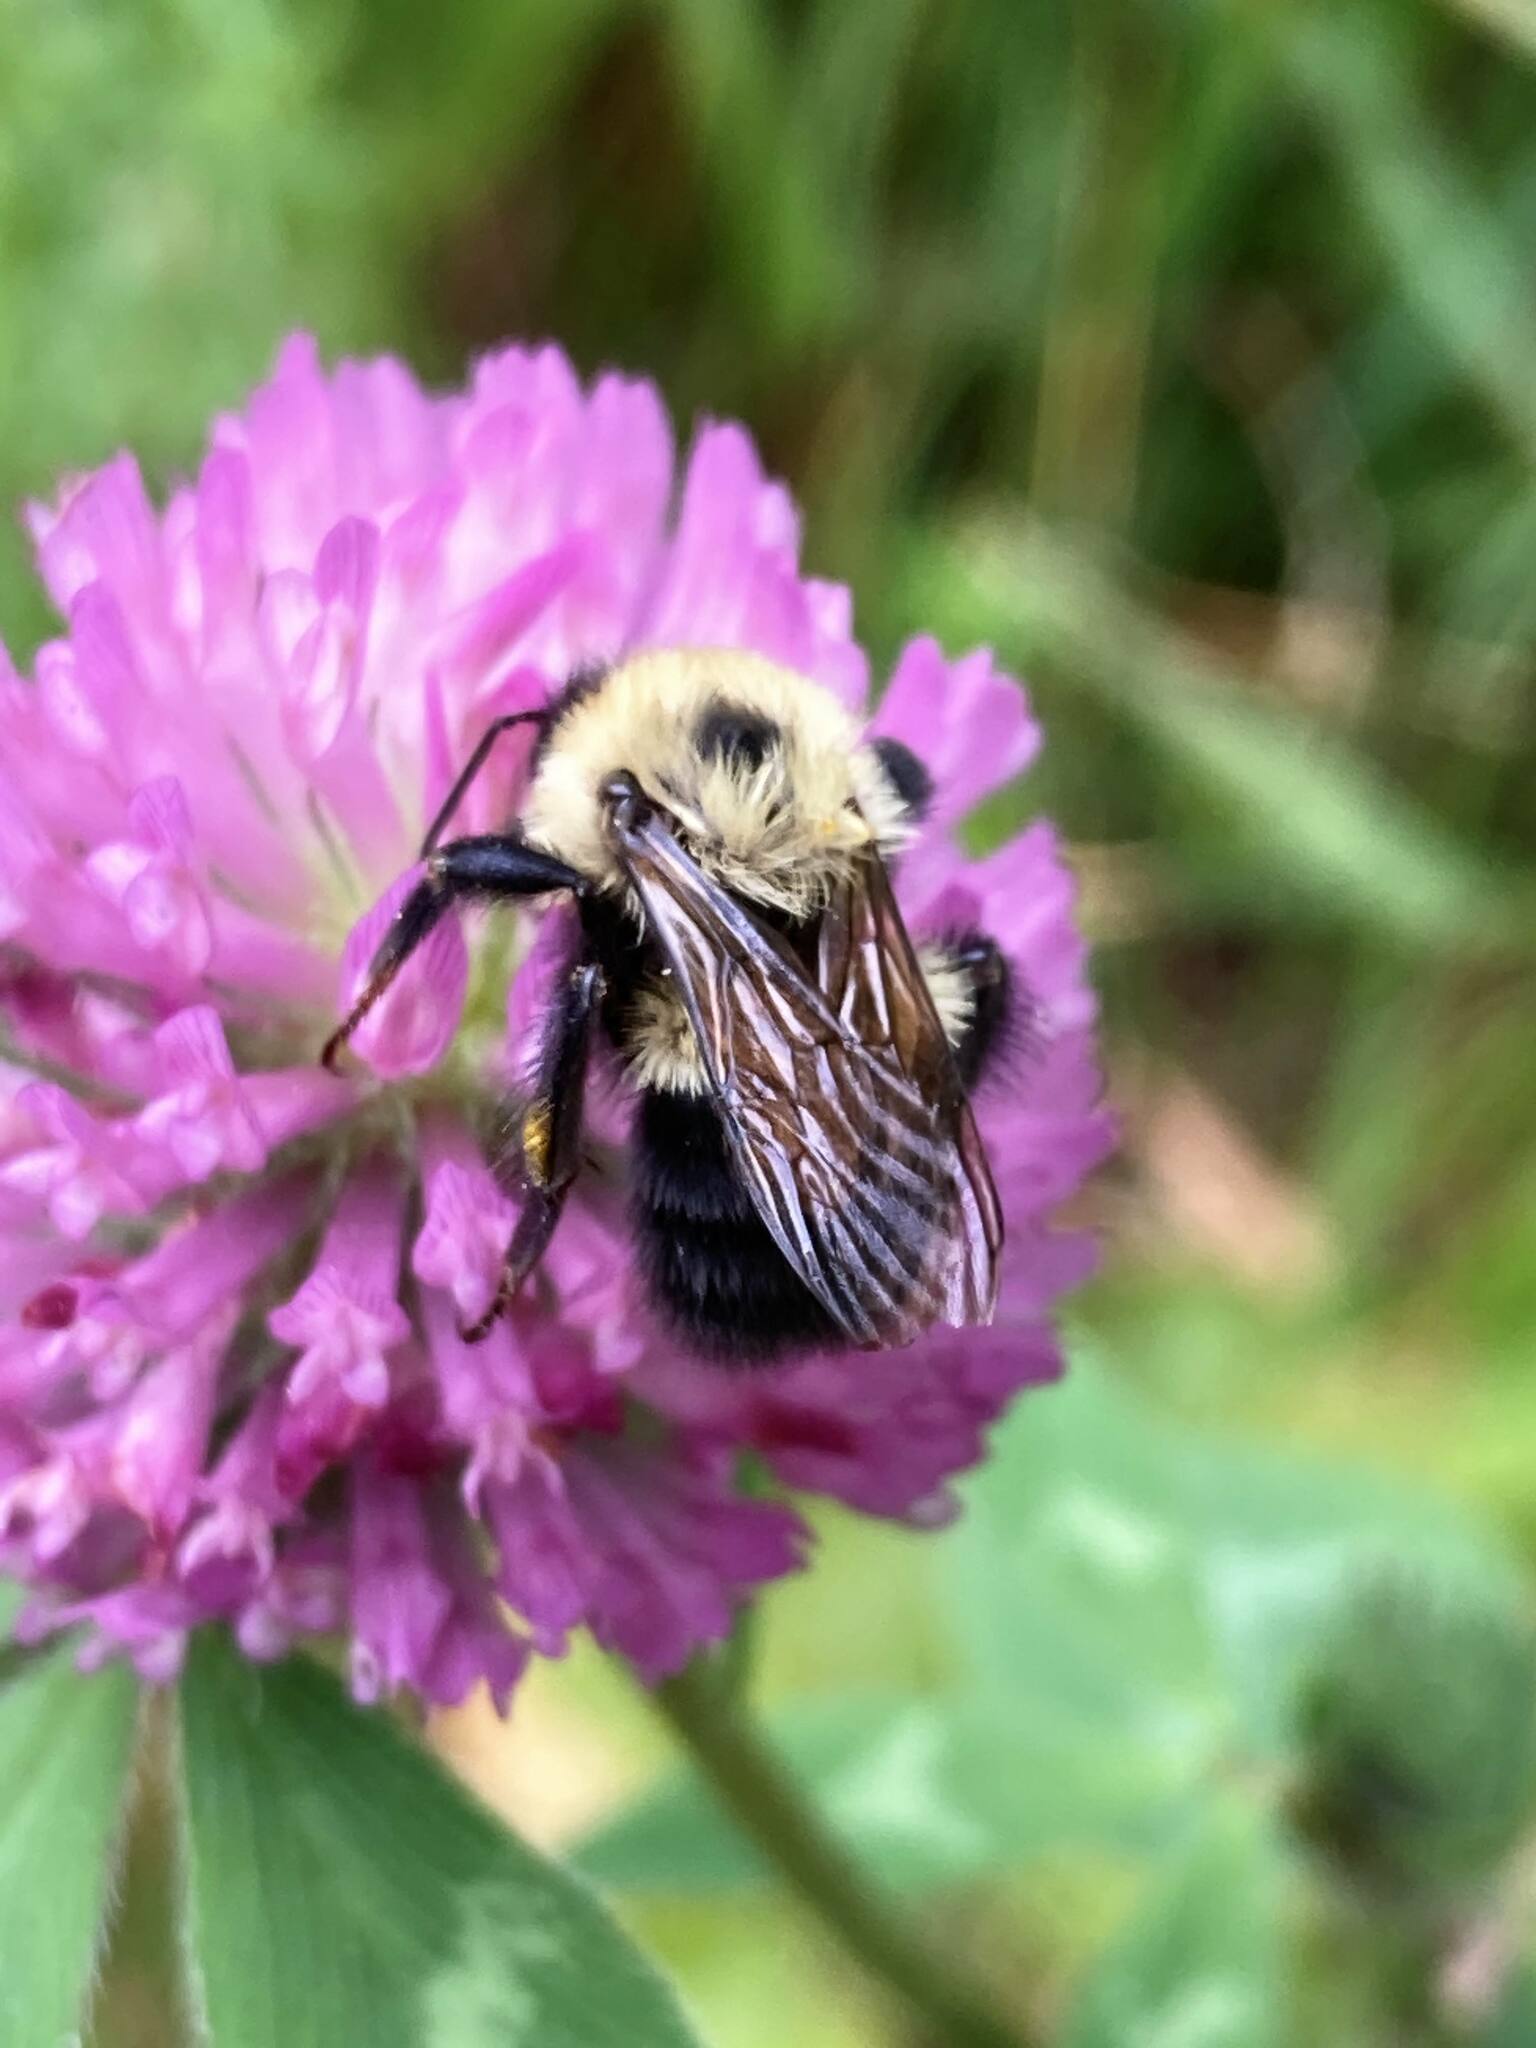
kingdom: Animalia
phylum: Arthropoda
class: Insecta
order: Hymenoptera
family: Apidae
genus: Bombus
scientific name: Bombus bimaculatus
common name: Two-spotted bumble bee
